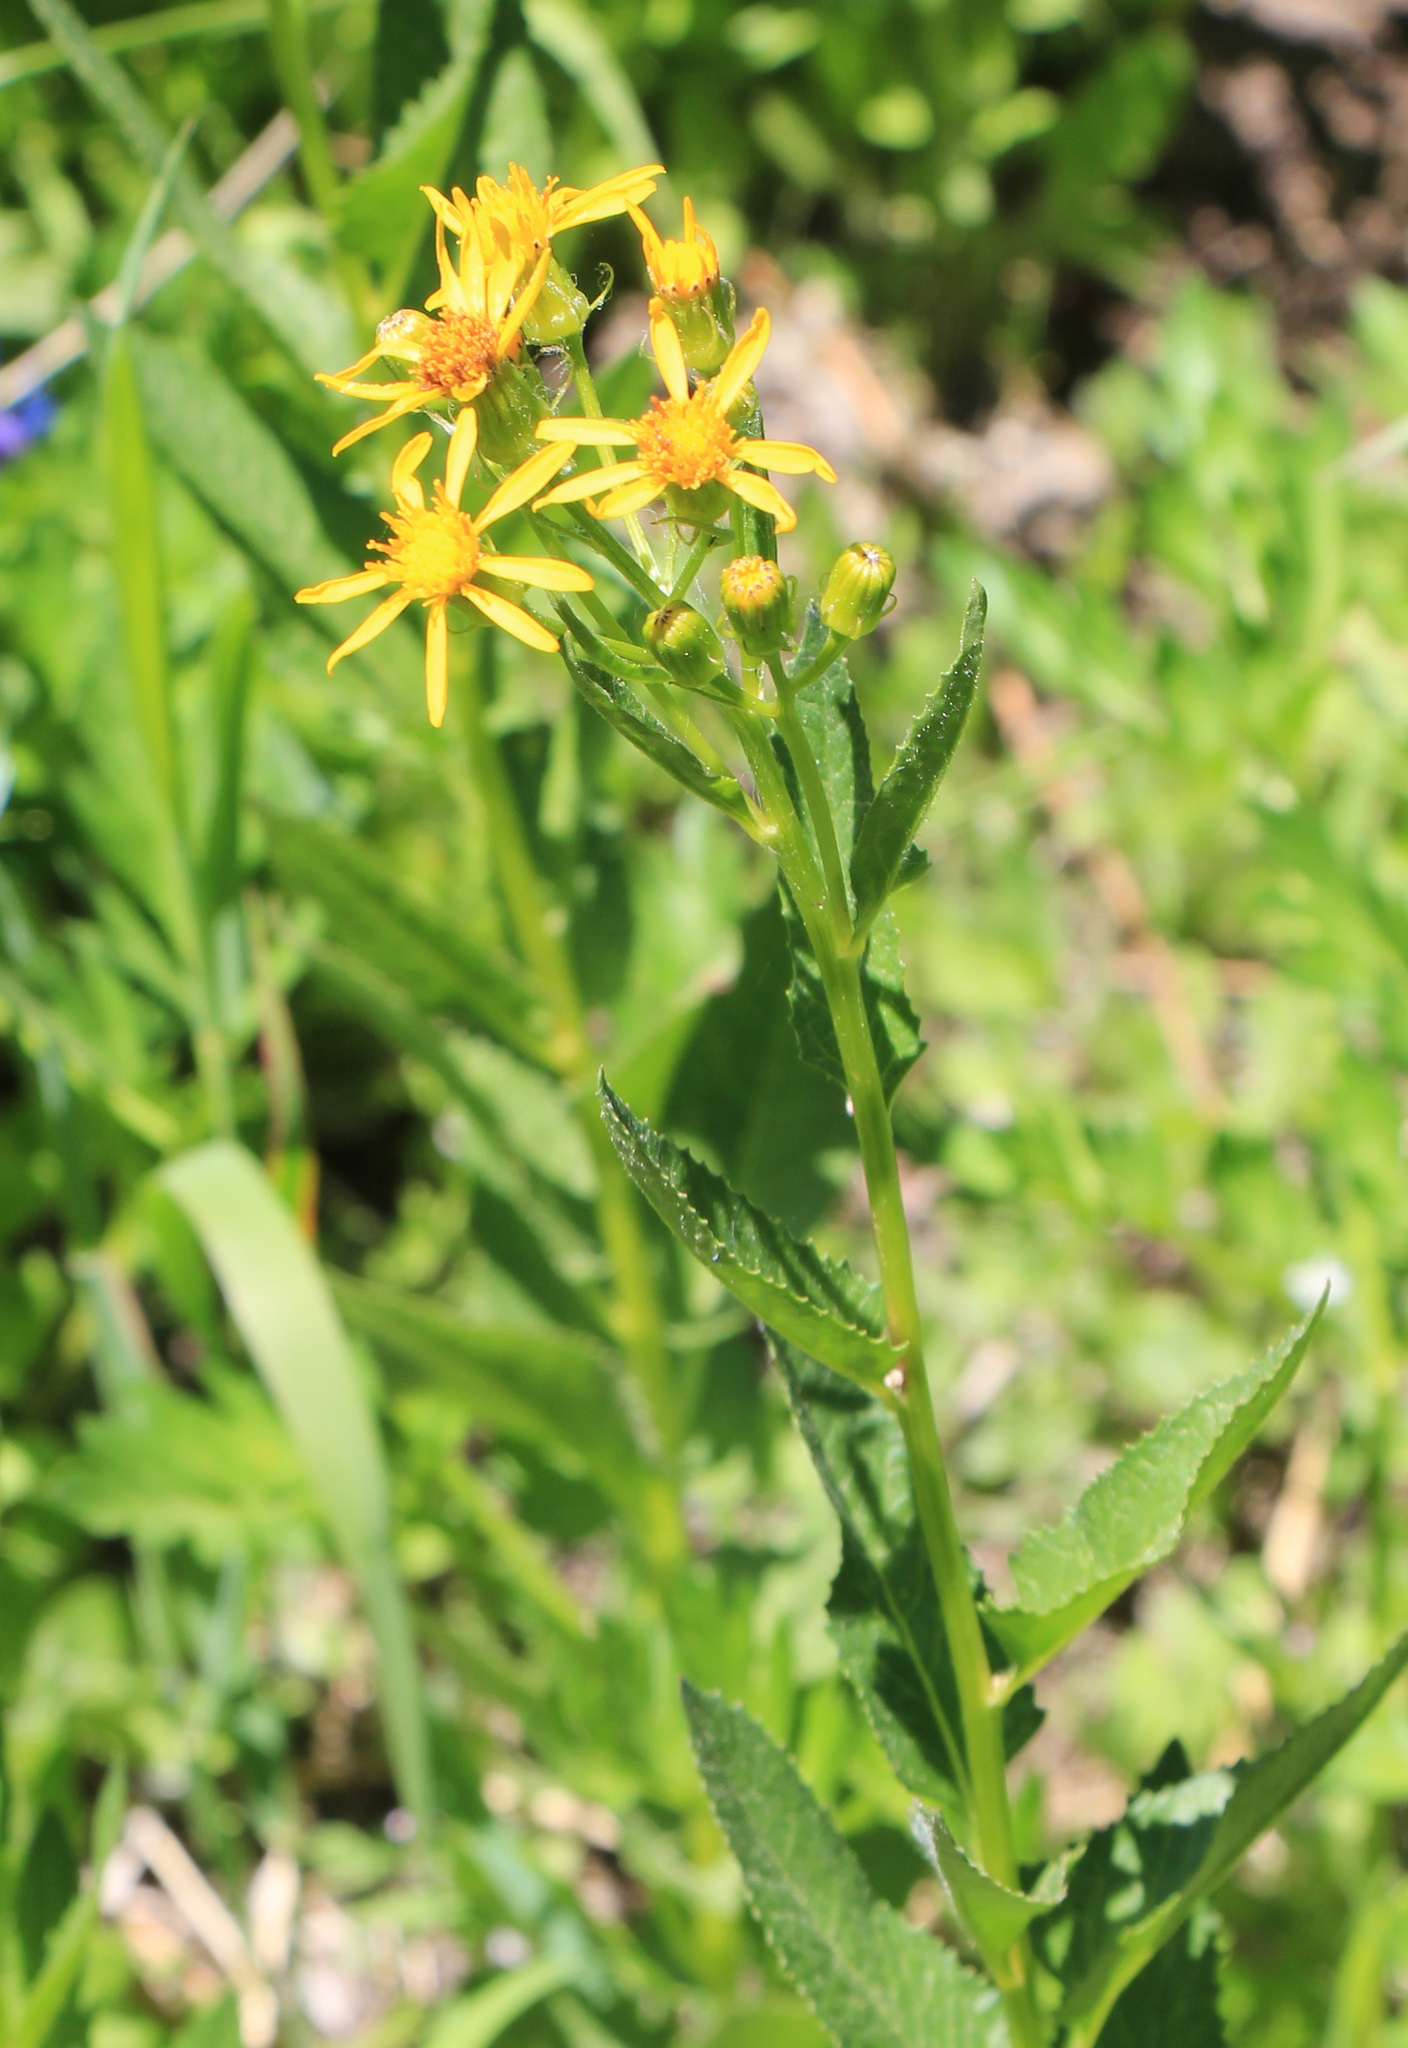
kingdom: Plantae
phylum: Tracheophyta
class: Magnoliopsida
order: Asterales
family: Asteraceae
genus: Senecio
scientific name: Senecio triangularis
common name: Arrowleaf butterweed
